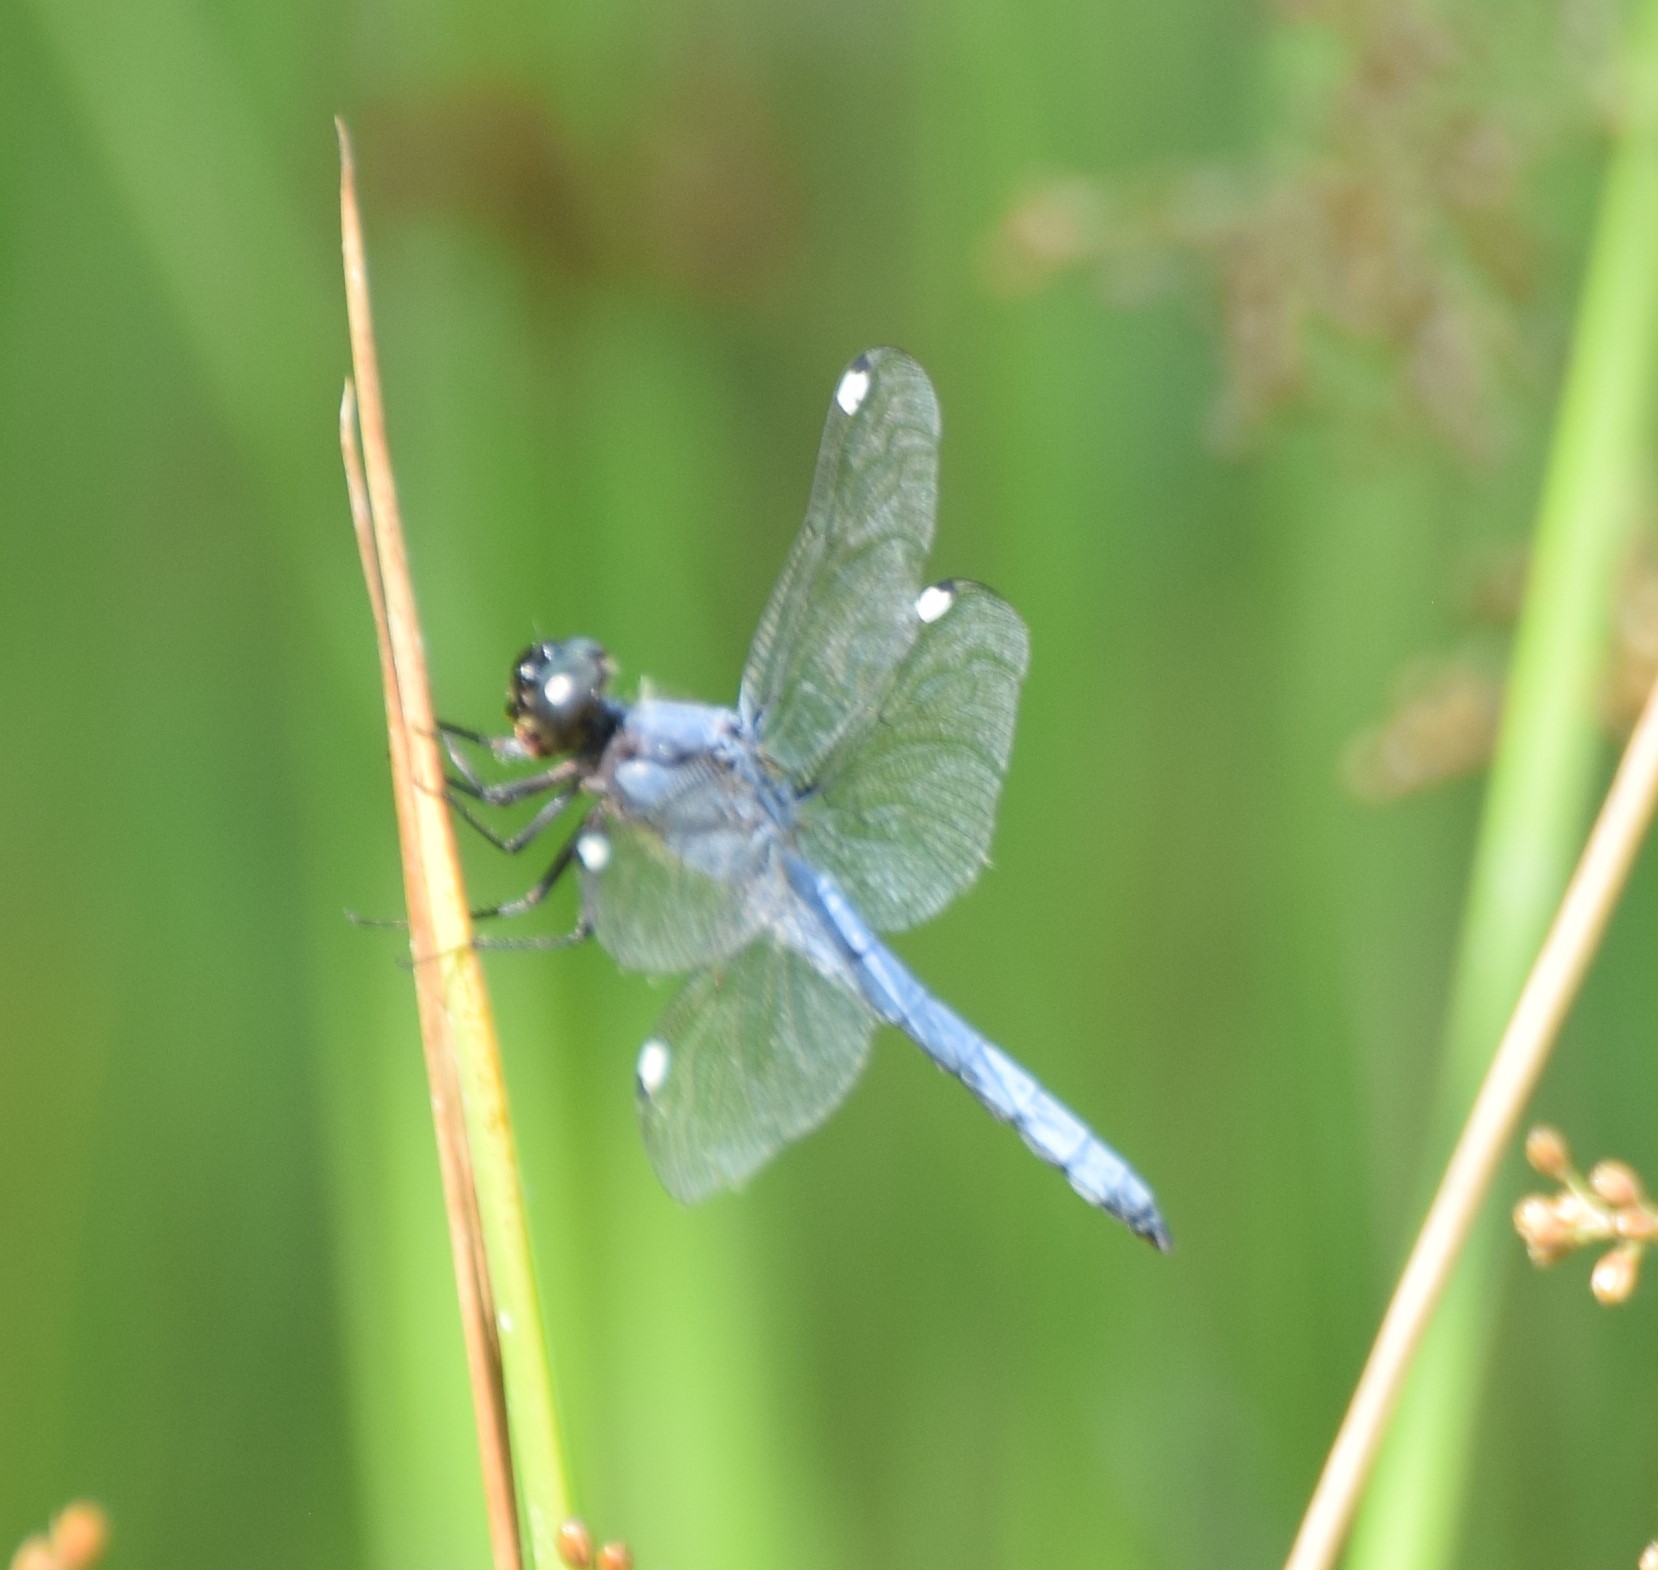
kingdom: Animalia
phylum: Arthropoda
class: Insecta
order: Odonata
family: Libellulidae
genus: Libellula
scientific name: Libellula cyanea
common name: Spangled skimmer
